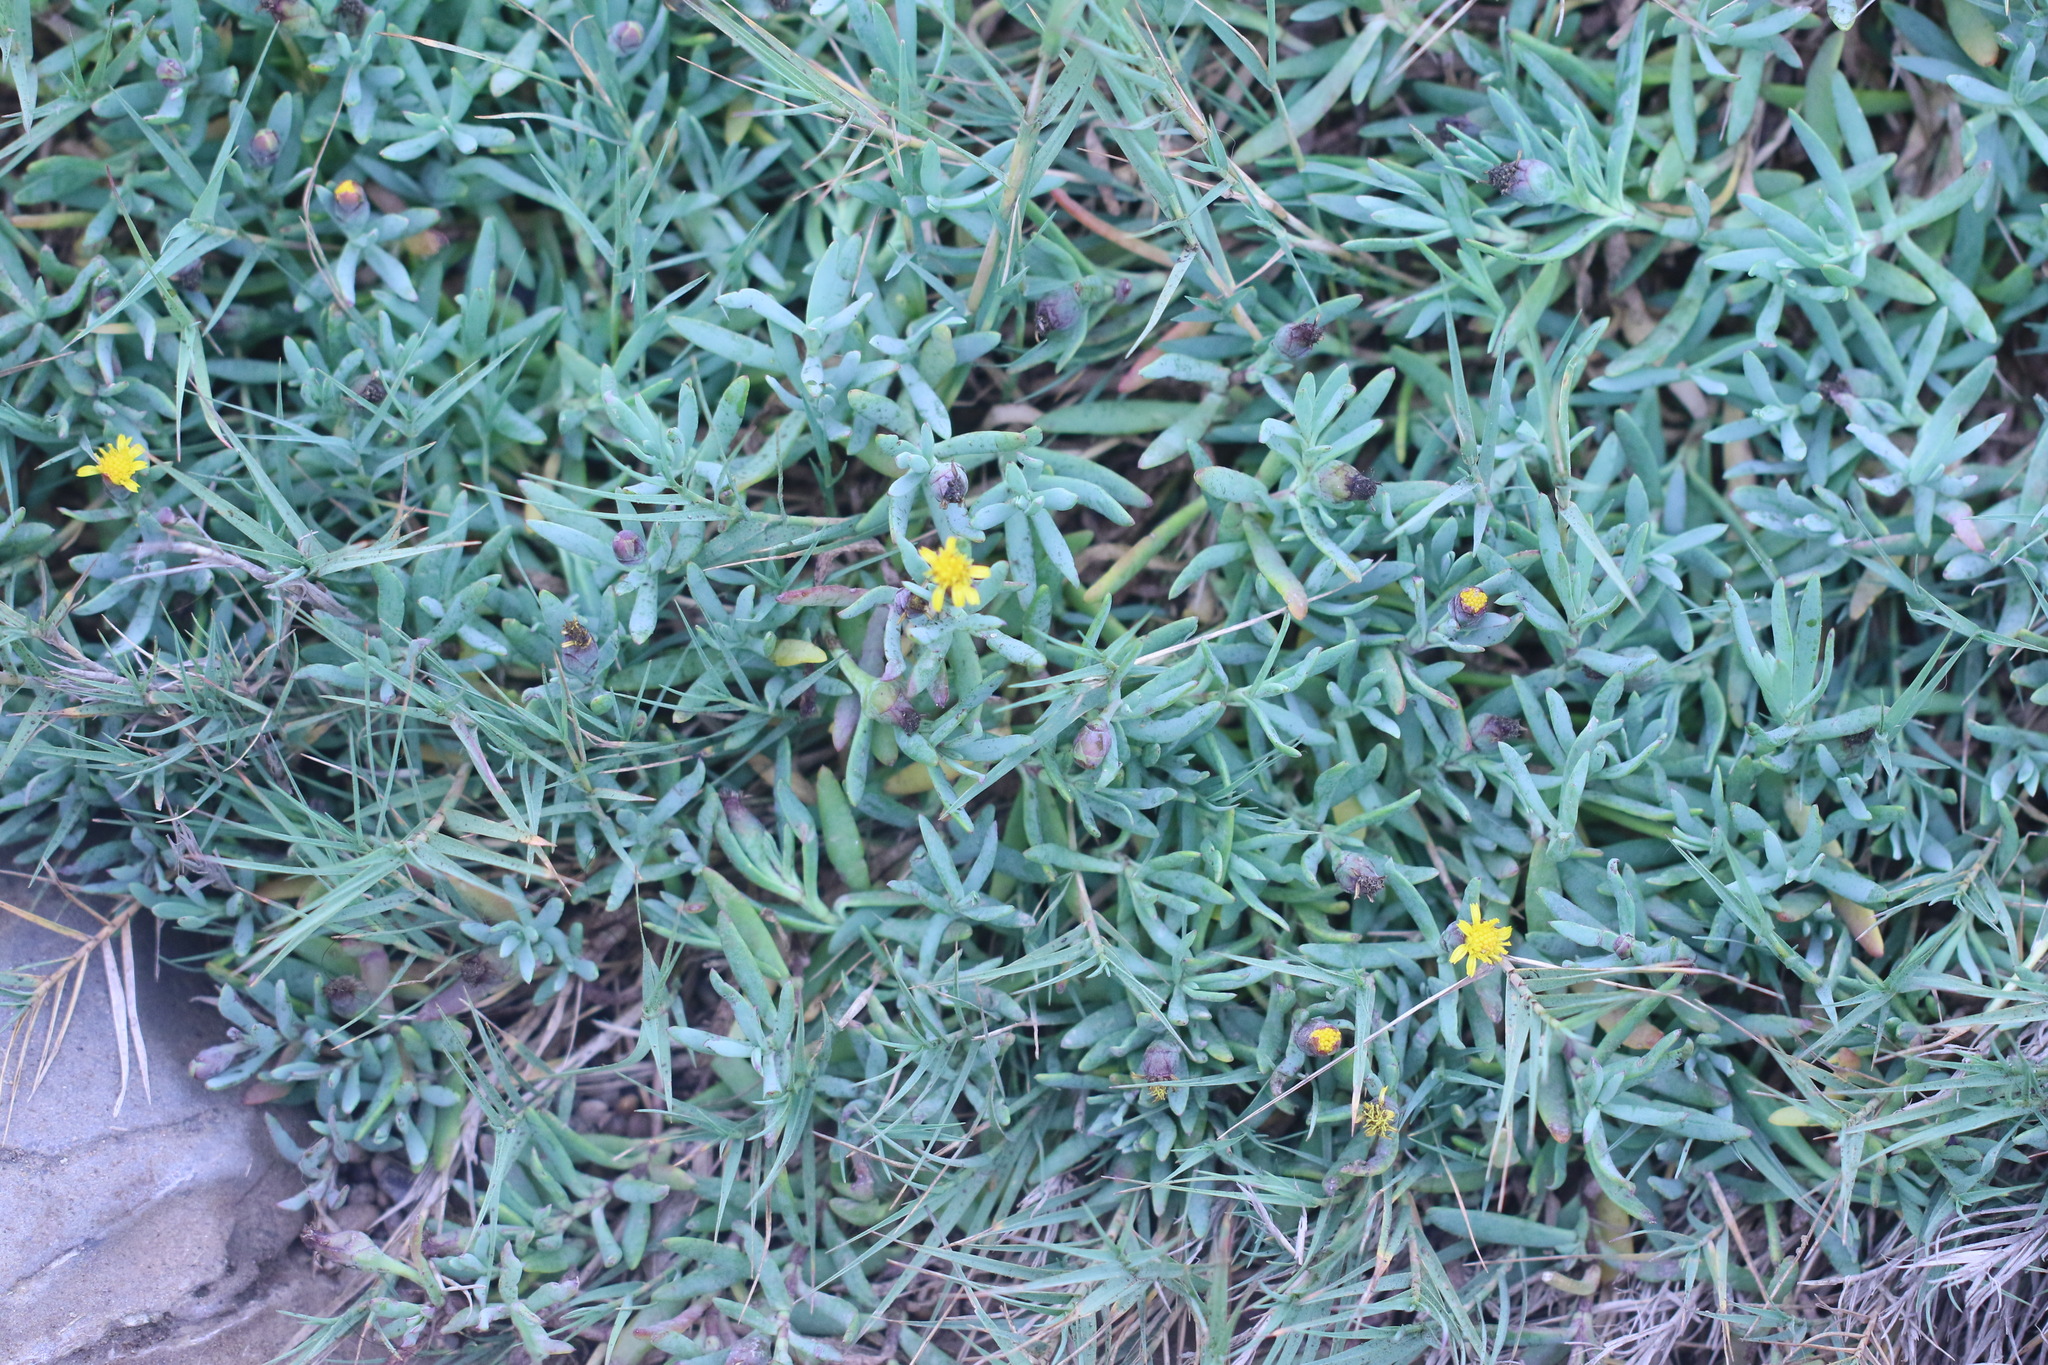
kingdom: Plantae
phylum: Tracheophyta
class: Magnoliopsida
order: Asterales
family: Asteraceae
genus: Jaumea
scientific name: Jaumea carnosa
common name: Fleshy jaumea
